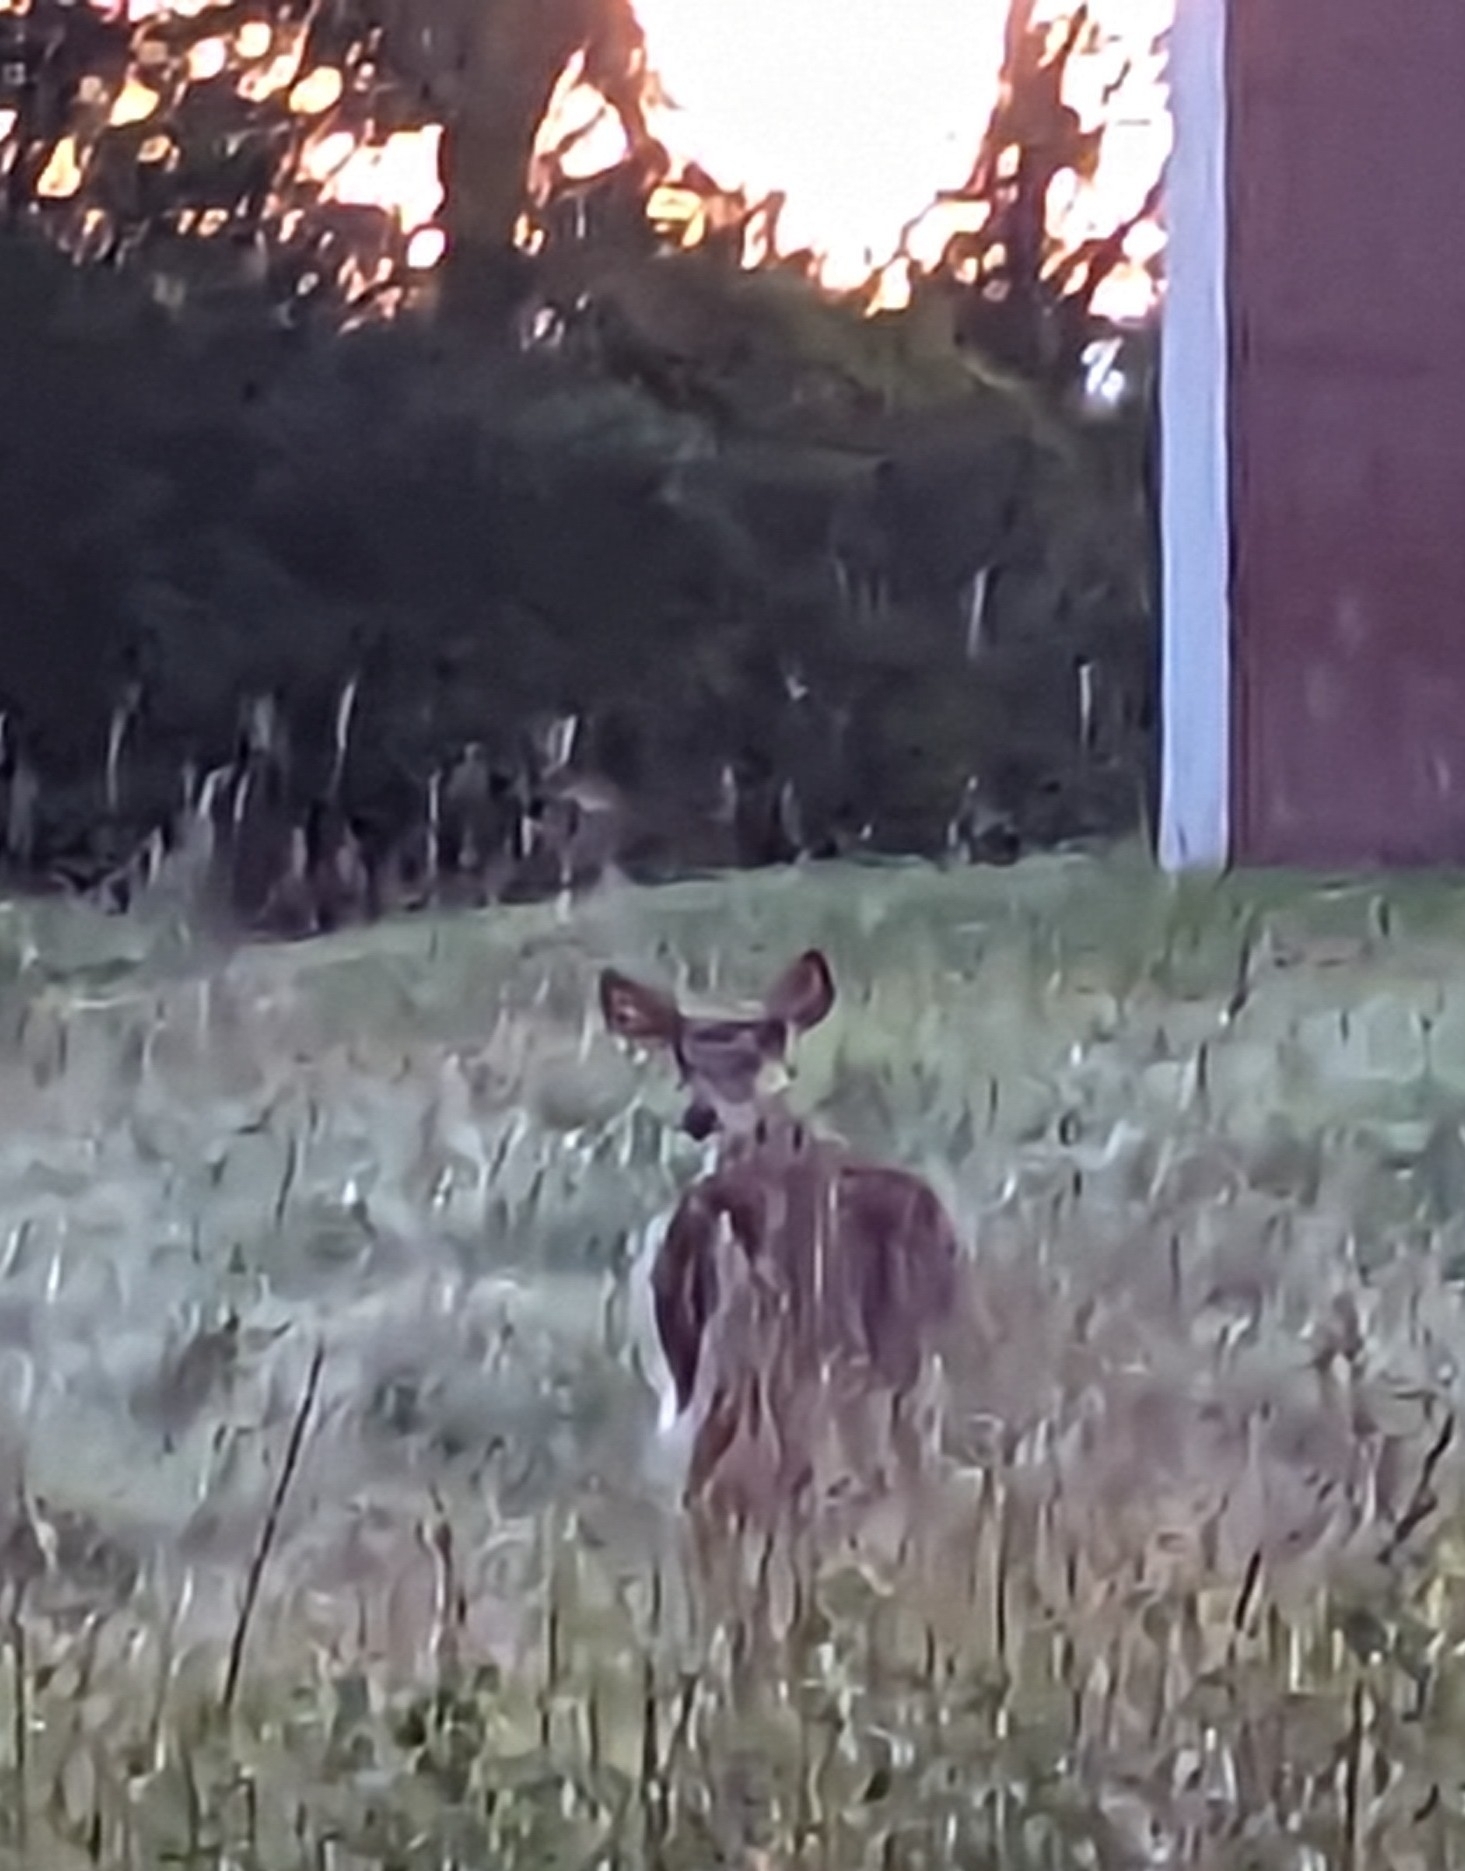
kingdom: Animalia
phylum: Chordata
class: Mammalia
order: Artiodactyla
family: Cervidae
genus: Odocoileus
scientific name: Odocoileus virginianus
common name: White-tailed deer
